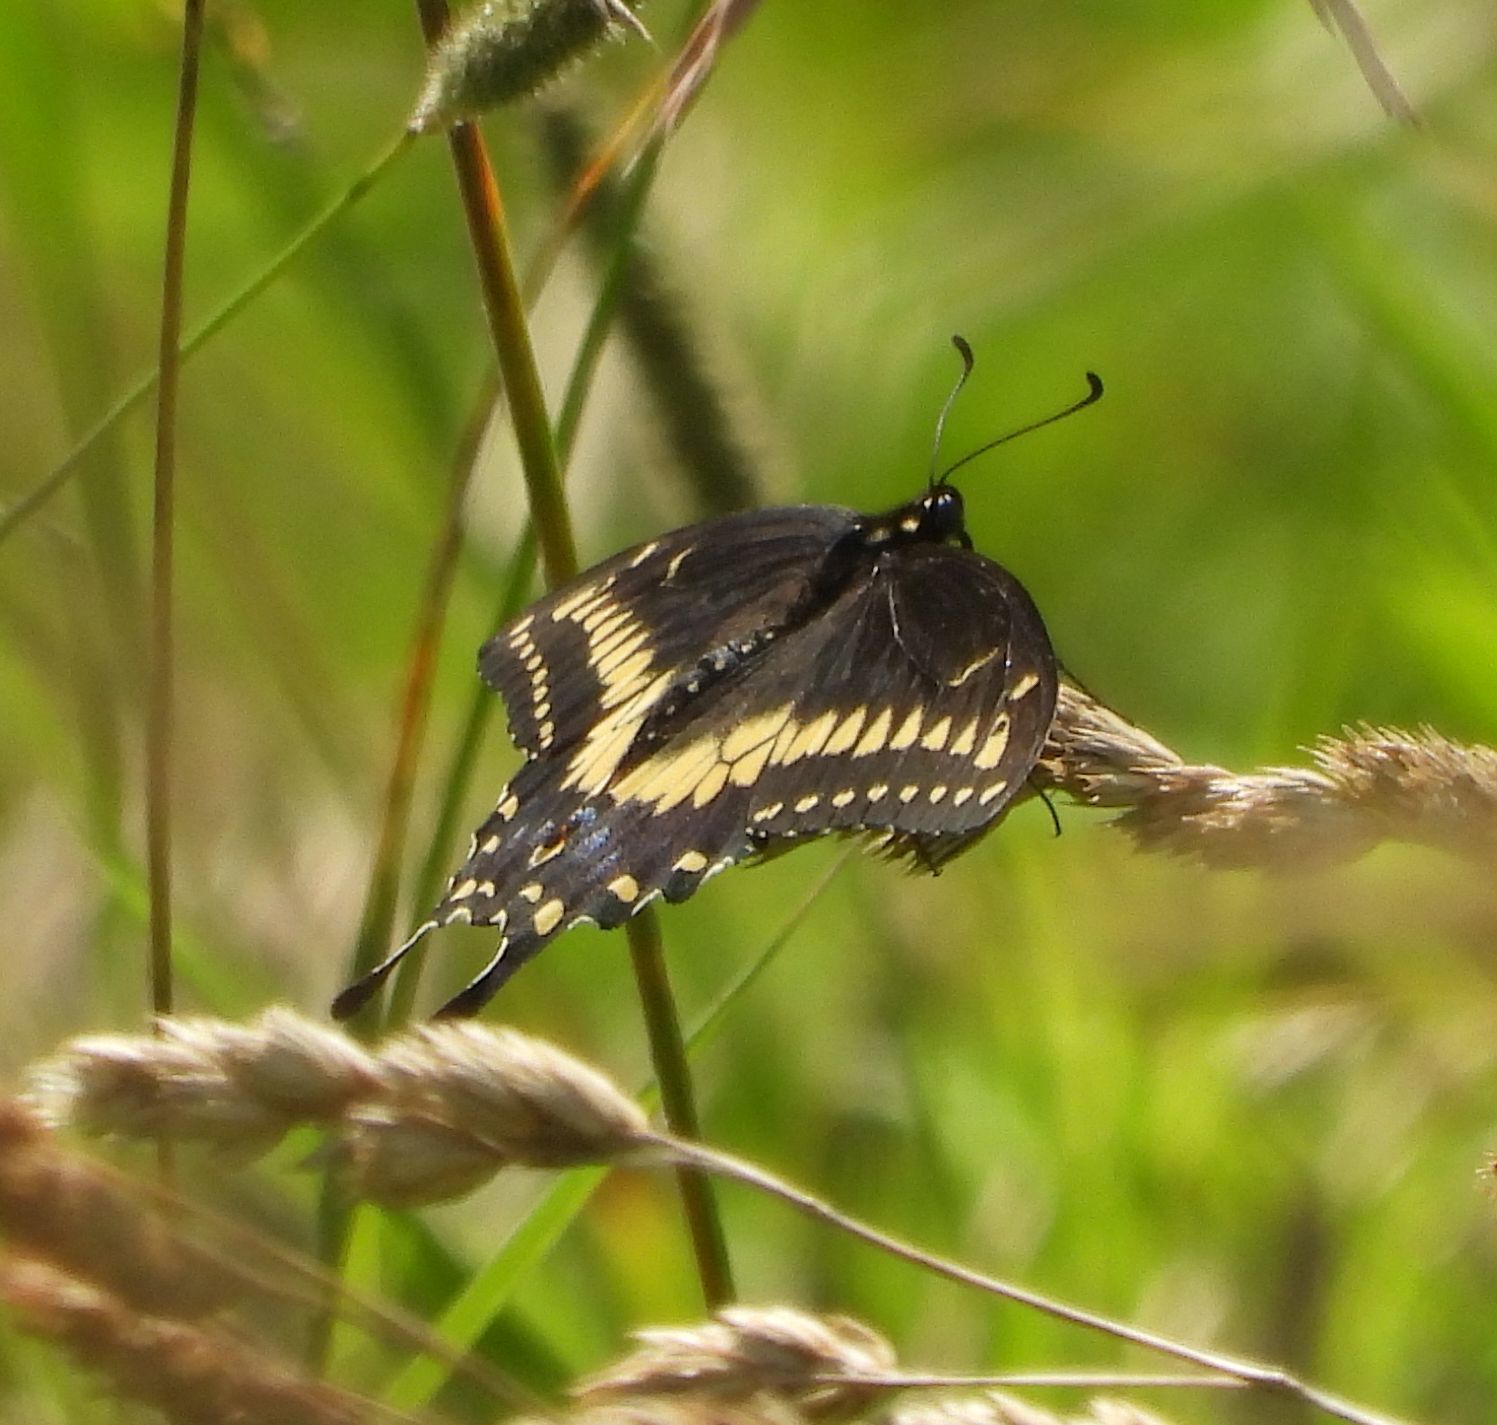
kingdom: Animalia
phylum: Arthropoda
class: Insecta
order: Lepidoptera
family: Papilionidae
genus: Papilio
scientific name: Papilio polyxenes
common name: Black swallowtail
